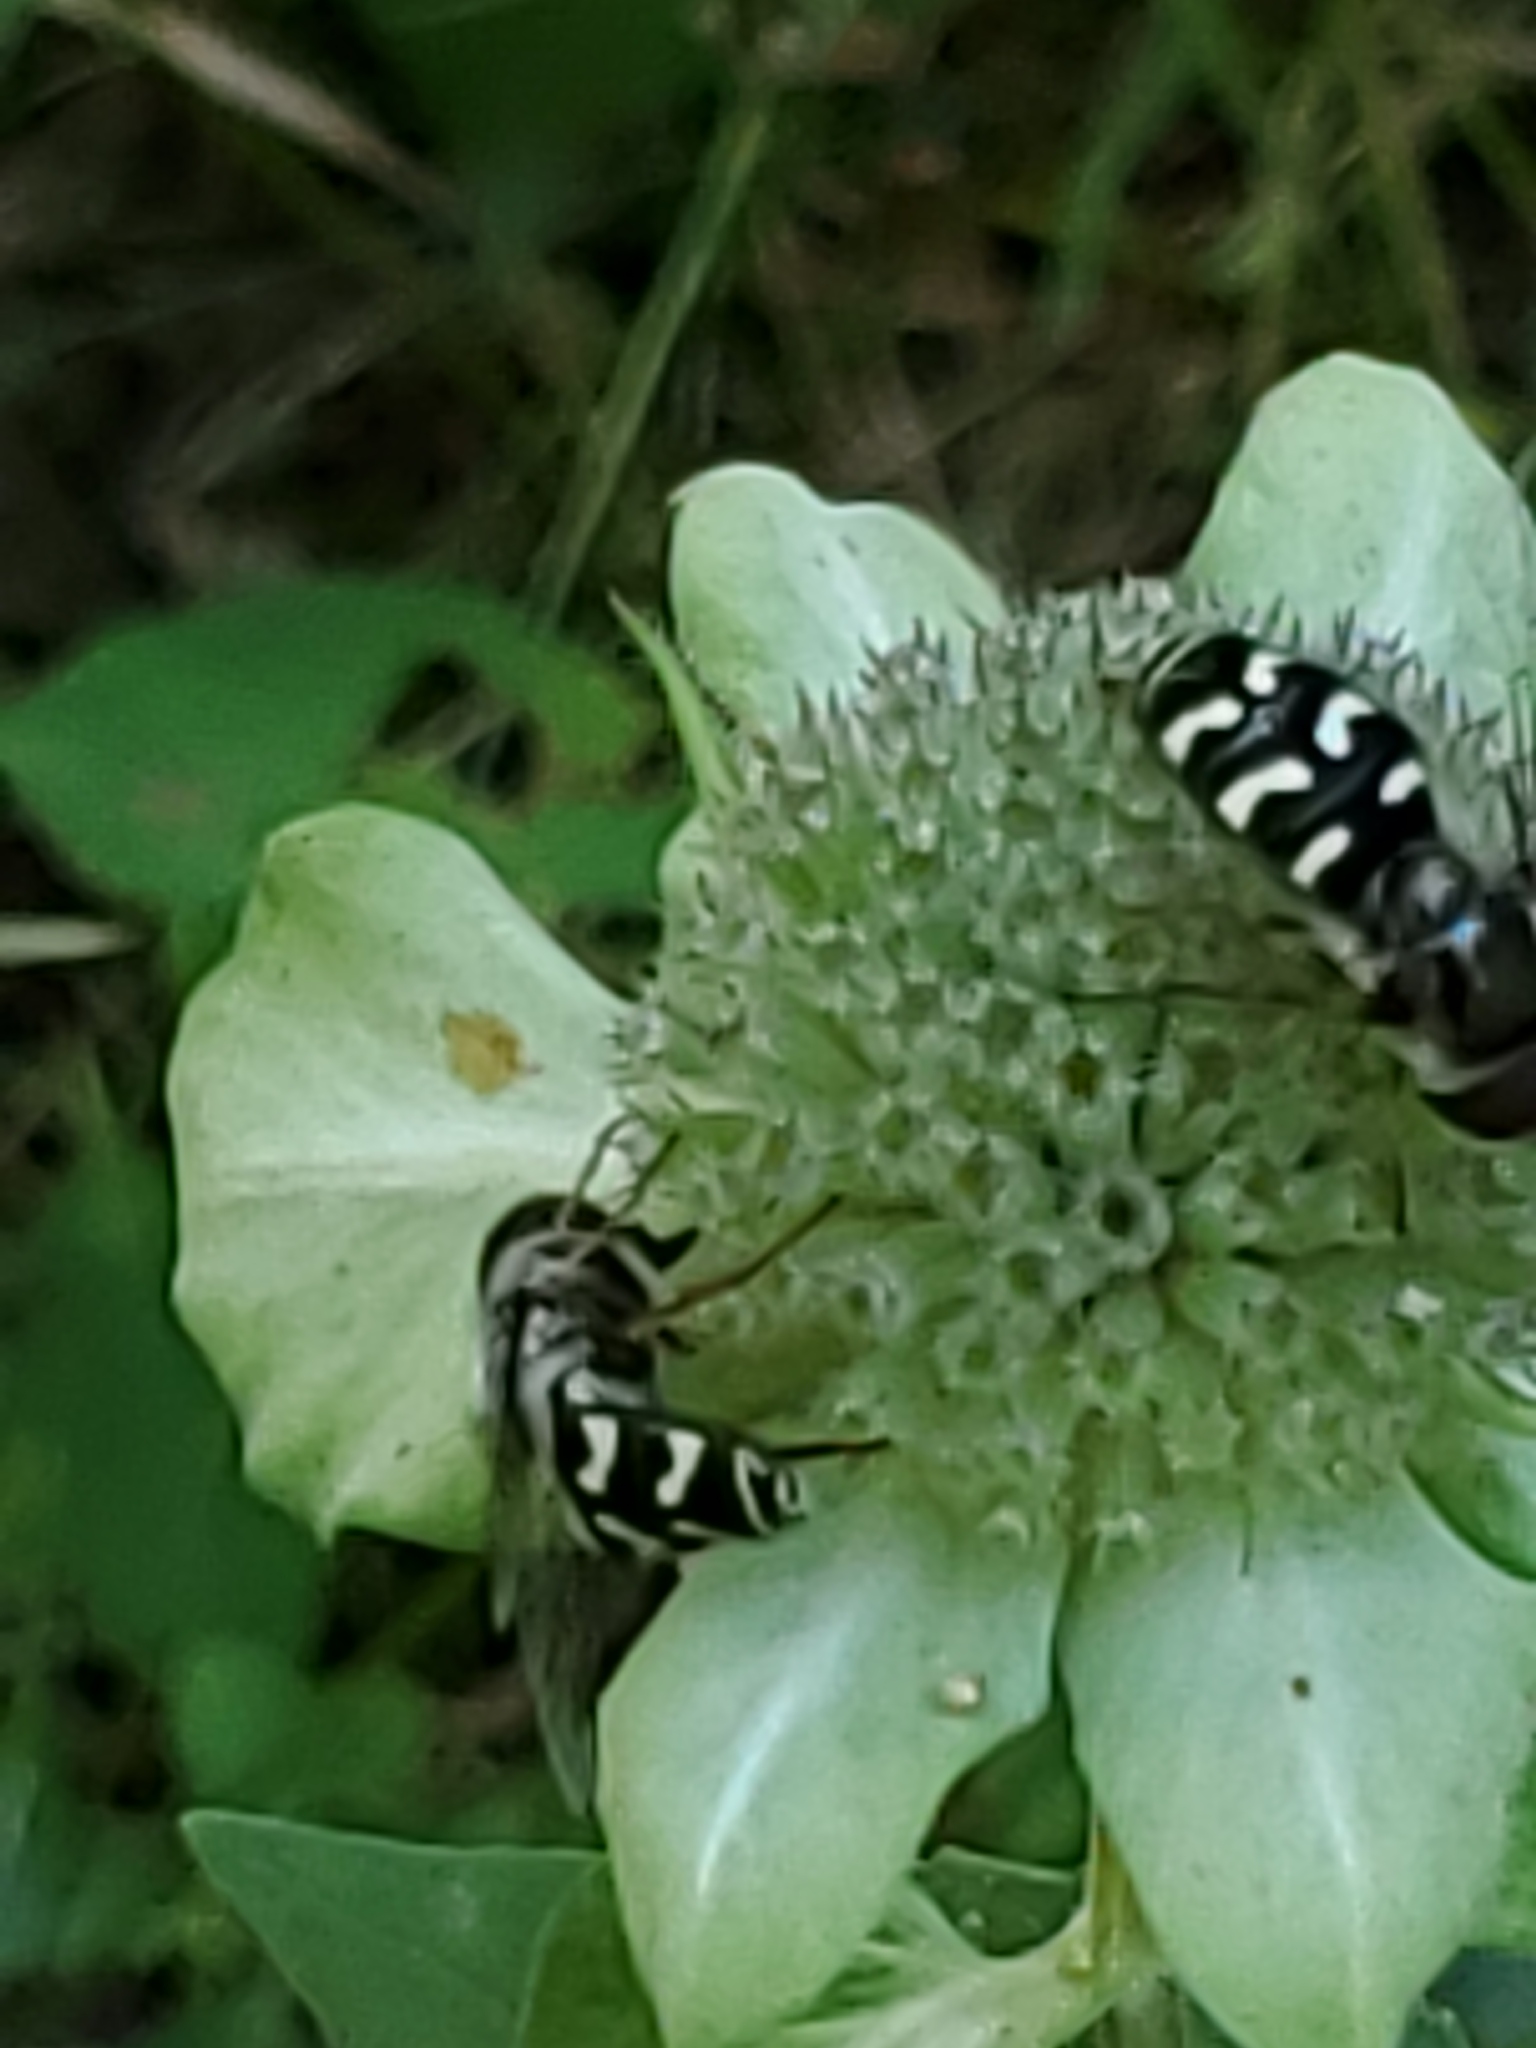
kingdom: Animalia
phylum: Arthropoda
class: Insecta
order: Diptera
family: Syrphidae
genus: Scaeva
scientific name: Scaeva affinis
